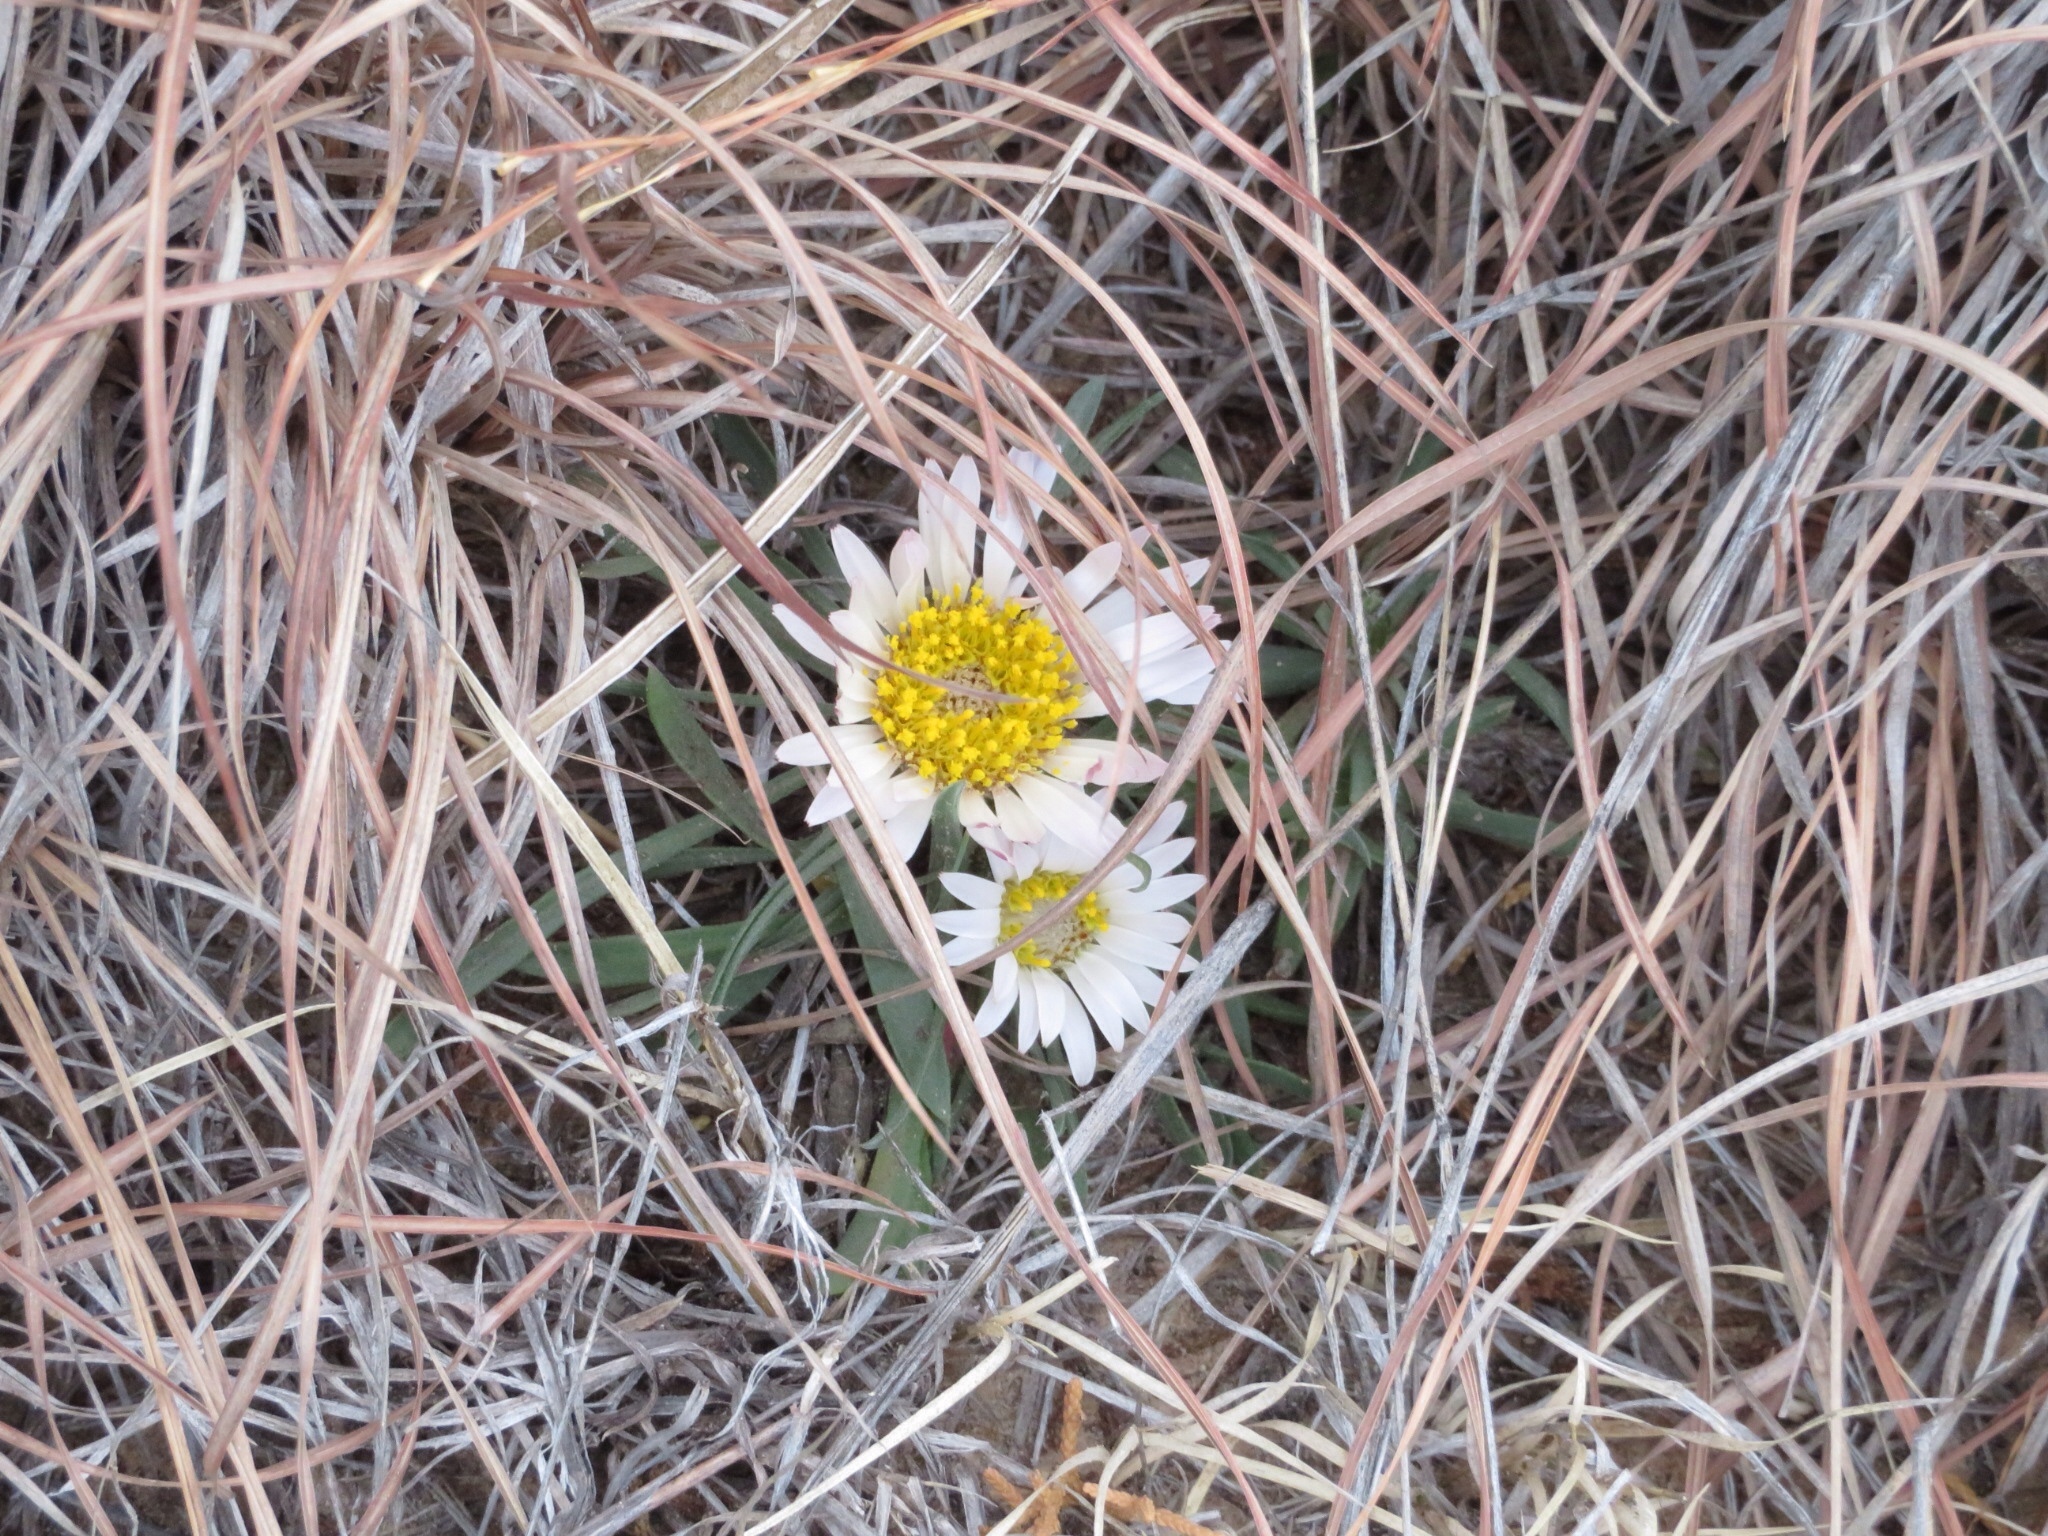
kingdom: Plantae
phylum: Tracheophyta
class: Magnoliopsida
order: Asterales
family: Asteraceae
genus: Townsendia
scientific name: Townsendia exscapa
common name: Dwarf townsendia
